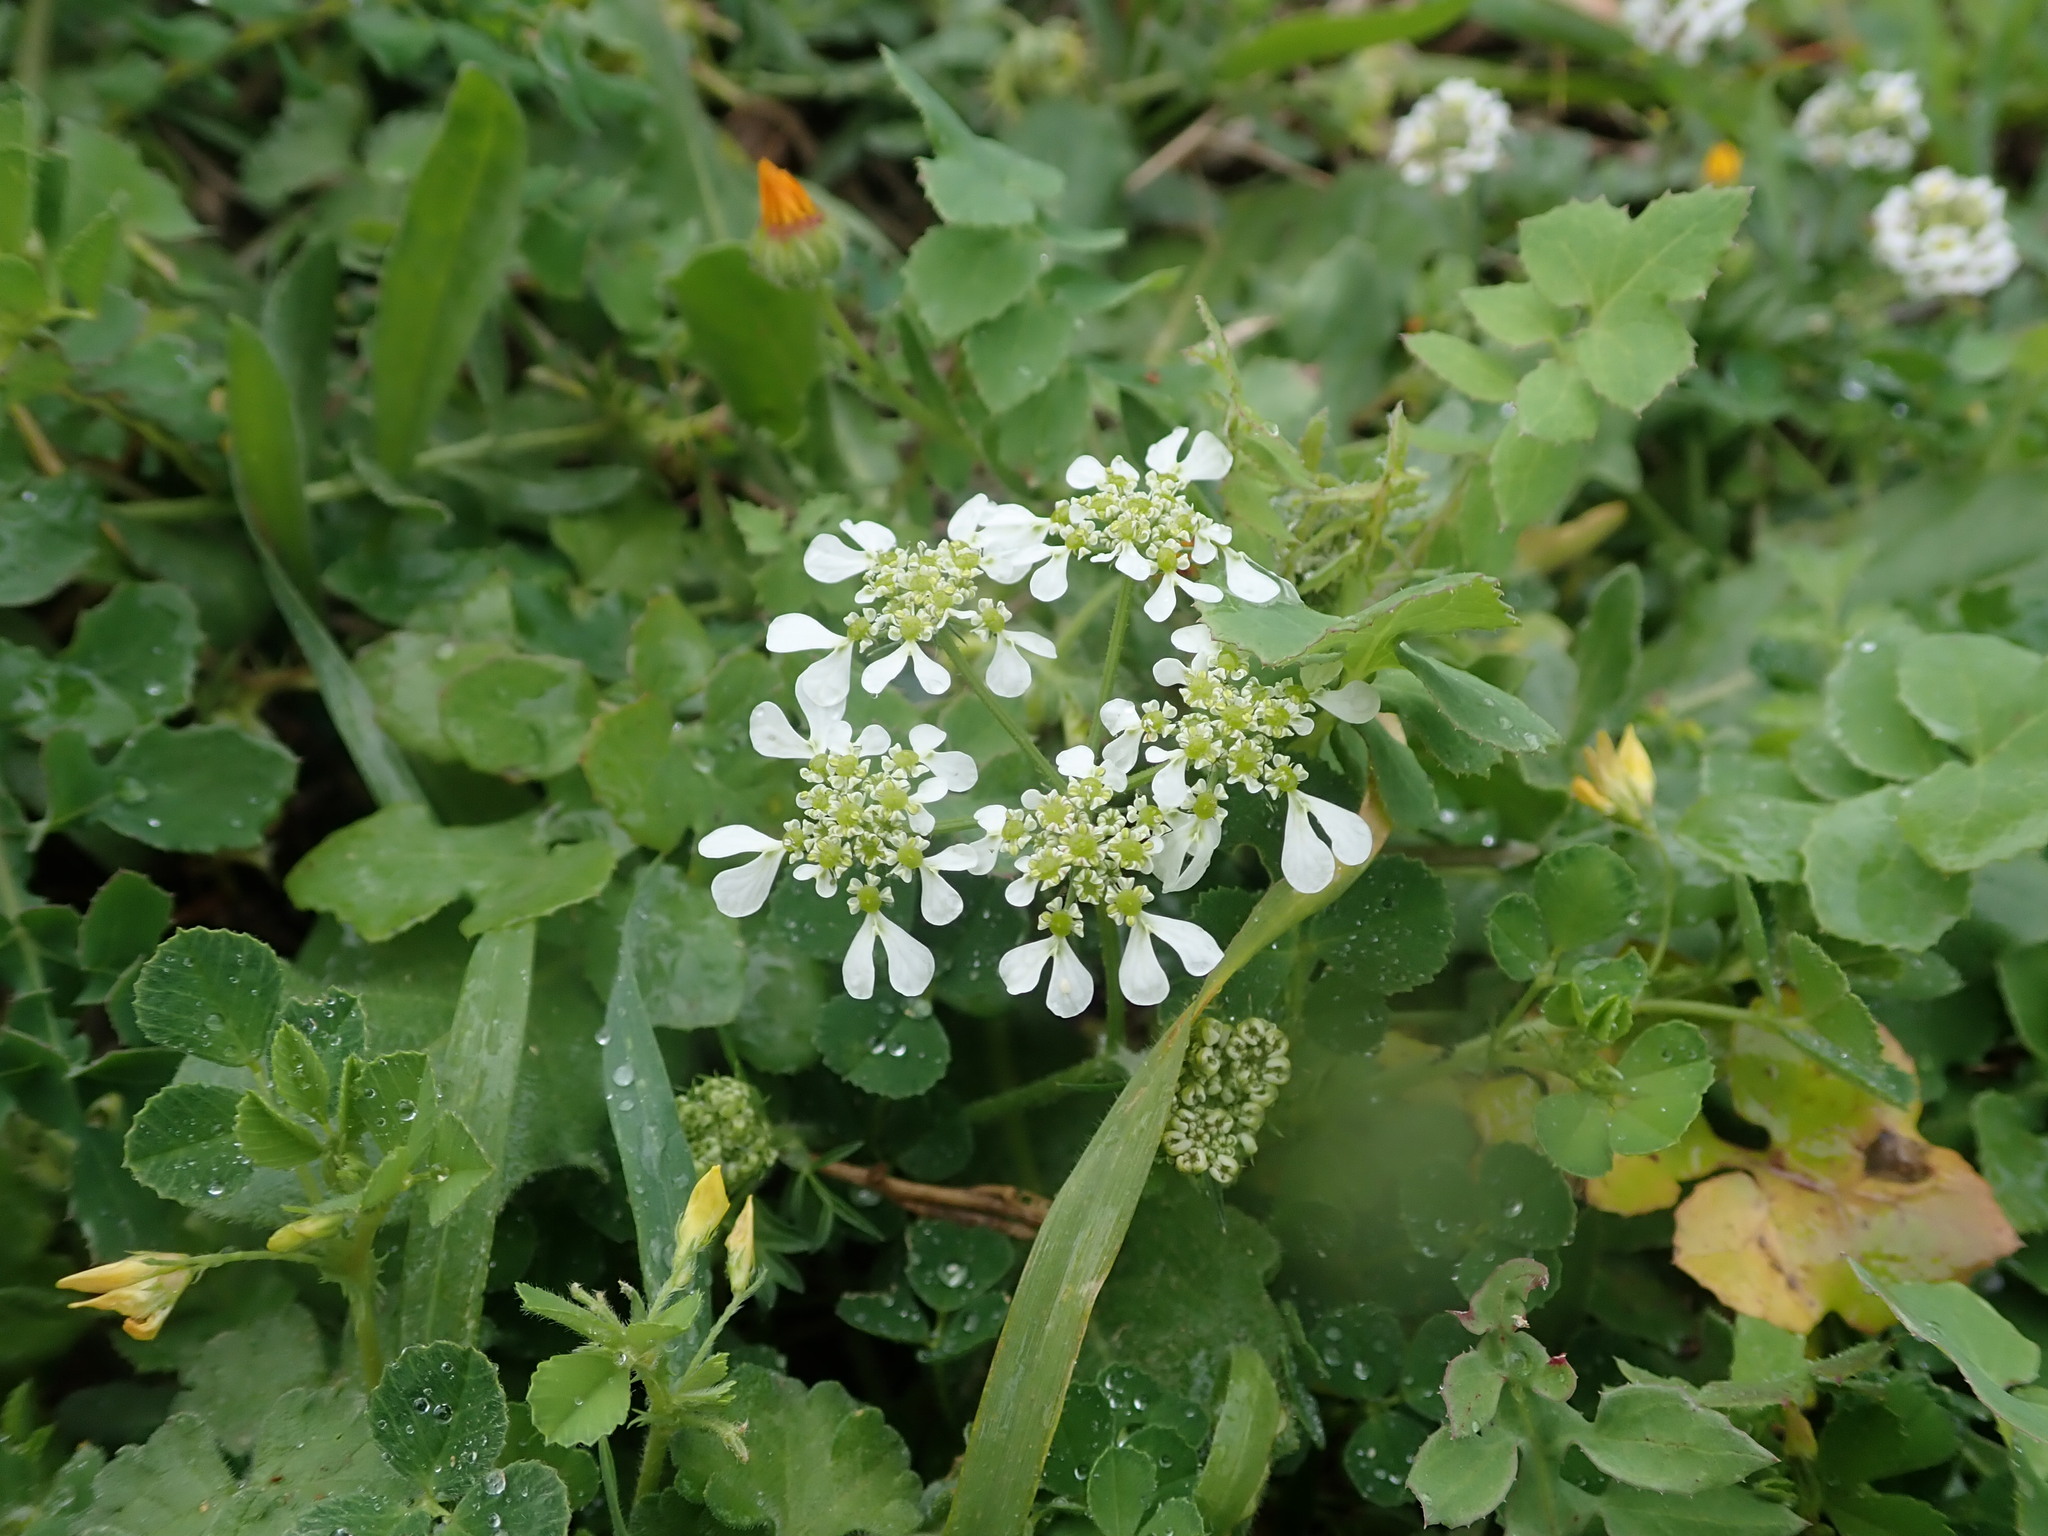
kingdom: Plantae
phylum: Tracheophyta
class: Magnoliopsida
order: Apiales
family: Apiaceae
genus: Tordylium
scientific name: Tordylium apulum
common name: Mediterranean hartwort
